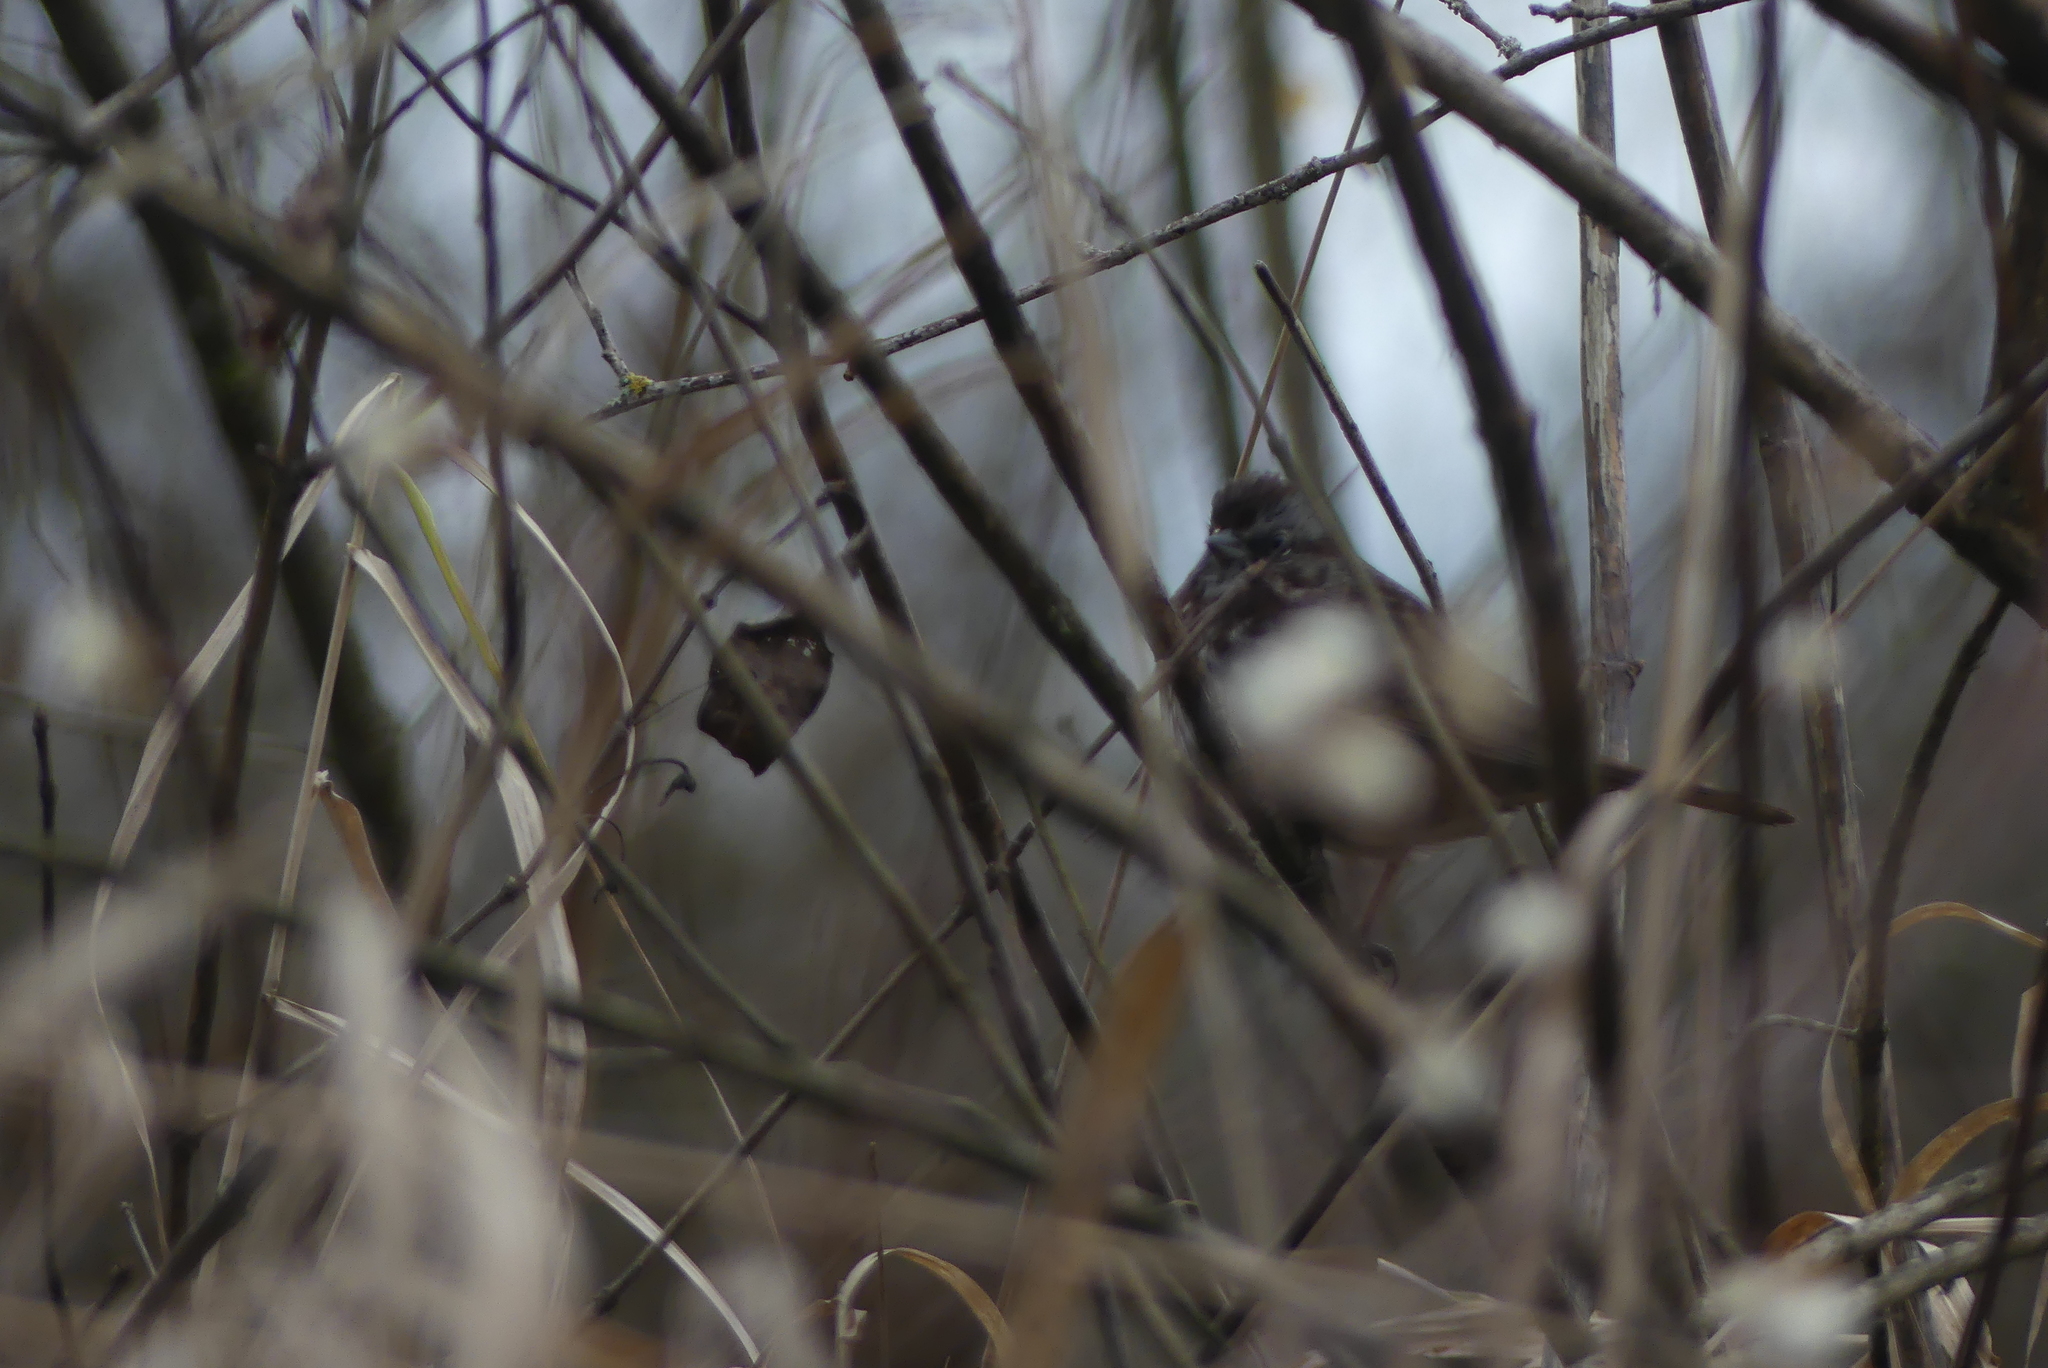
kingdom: Animalia
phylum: Chordata
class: Aves
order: Passeriformes
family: Passerellidae
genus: Melospiza
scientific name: Melospiza melodia
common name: Song sparrow
